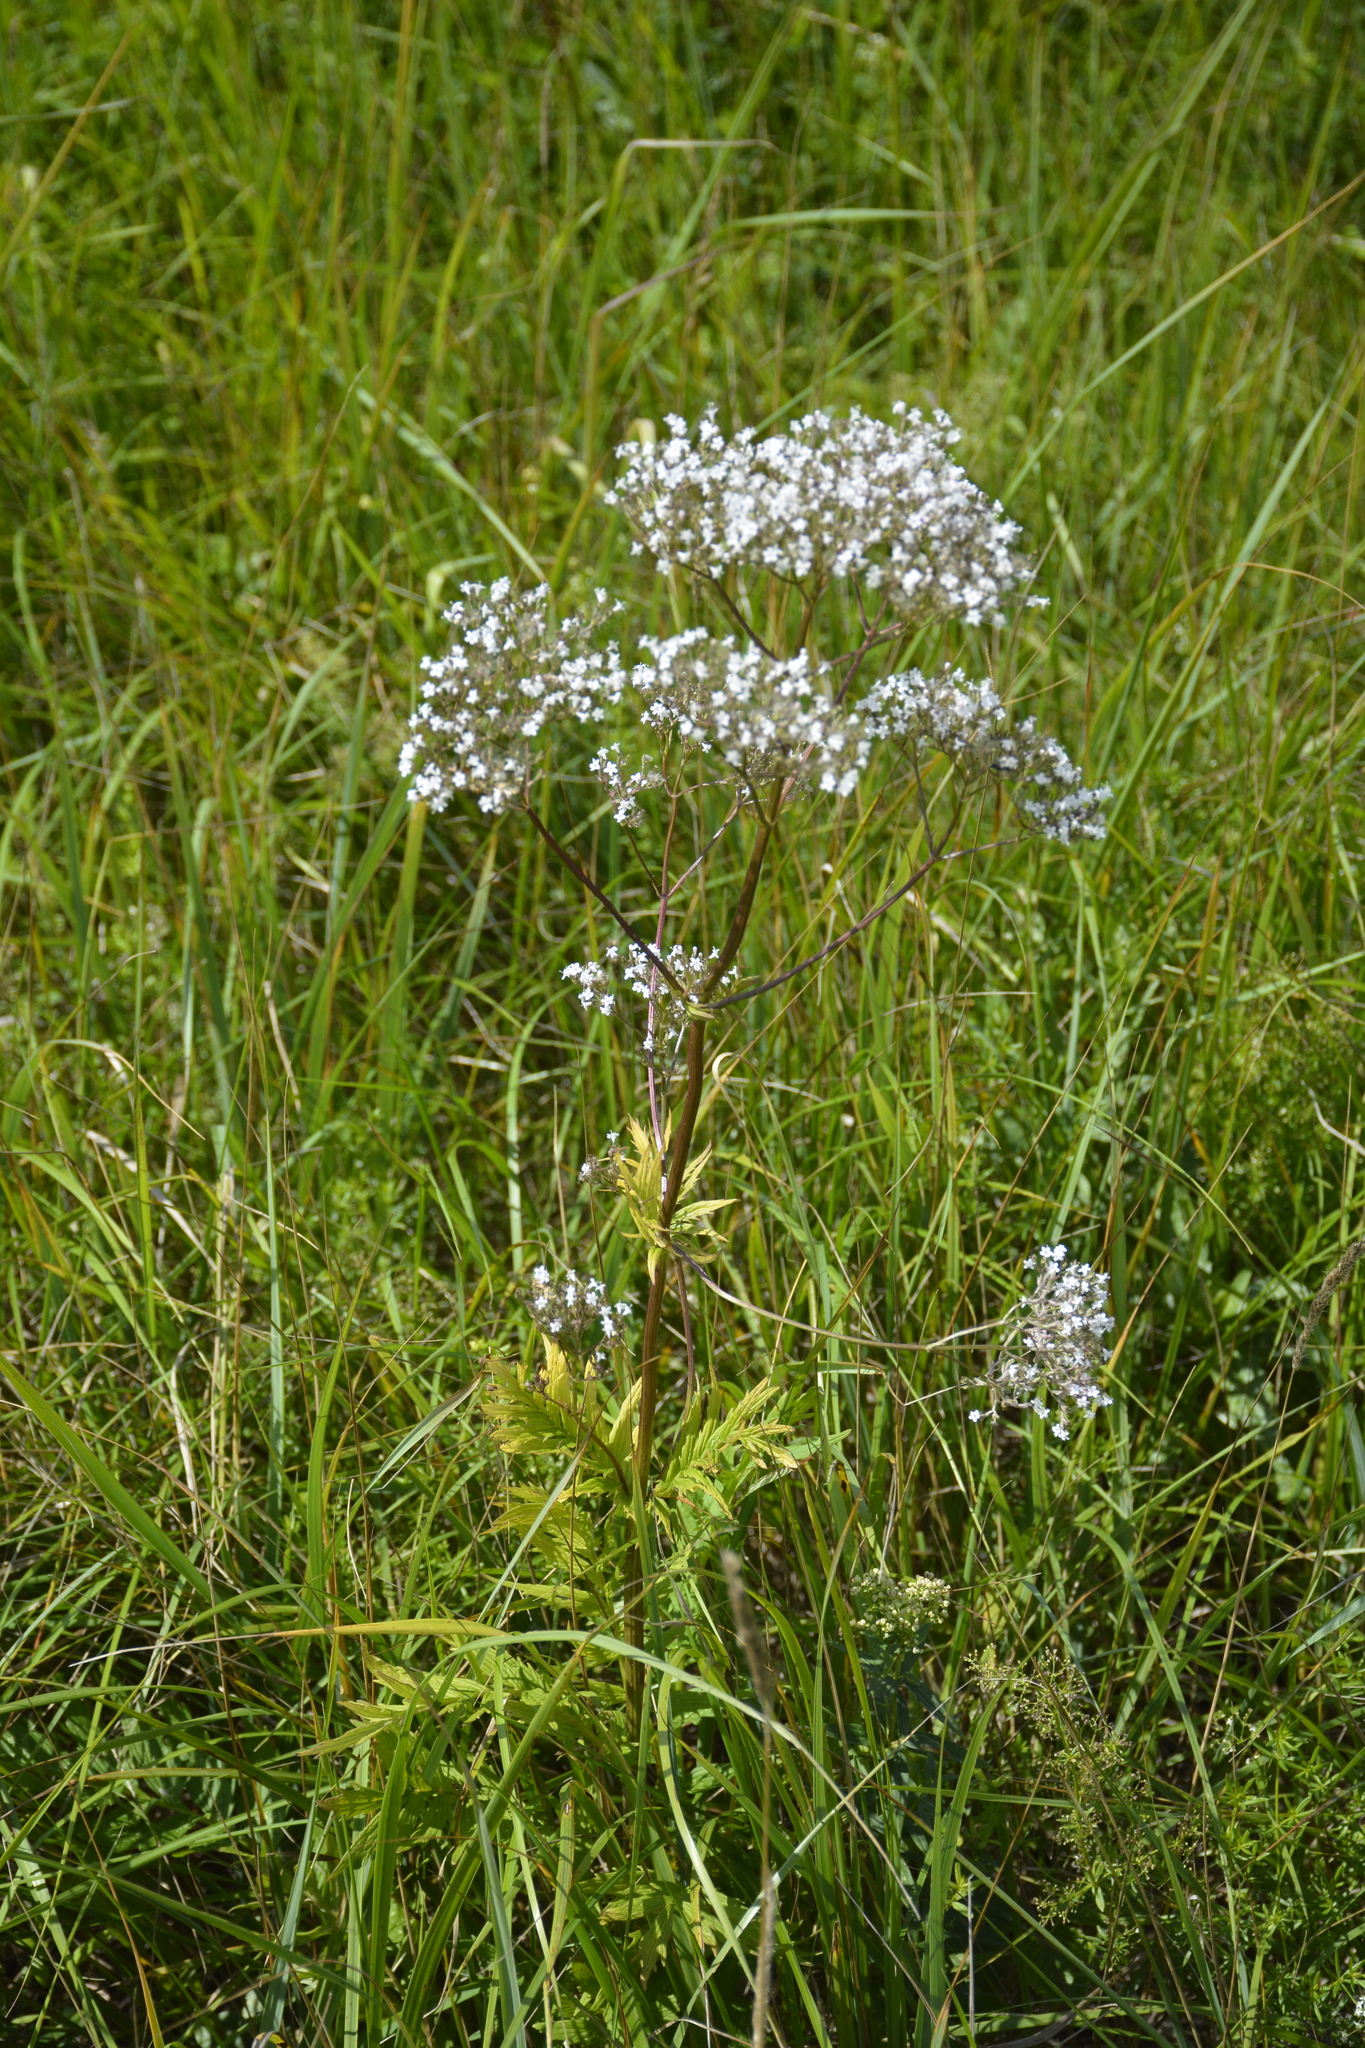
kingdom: Plantae
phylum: Tracheophyta
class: Magnoliopsida
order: Dipsacales
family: Caprifoliaceae
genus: Valeriana
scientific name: Valeriana officinalis
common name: Common valerian
